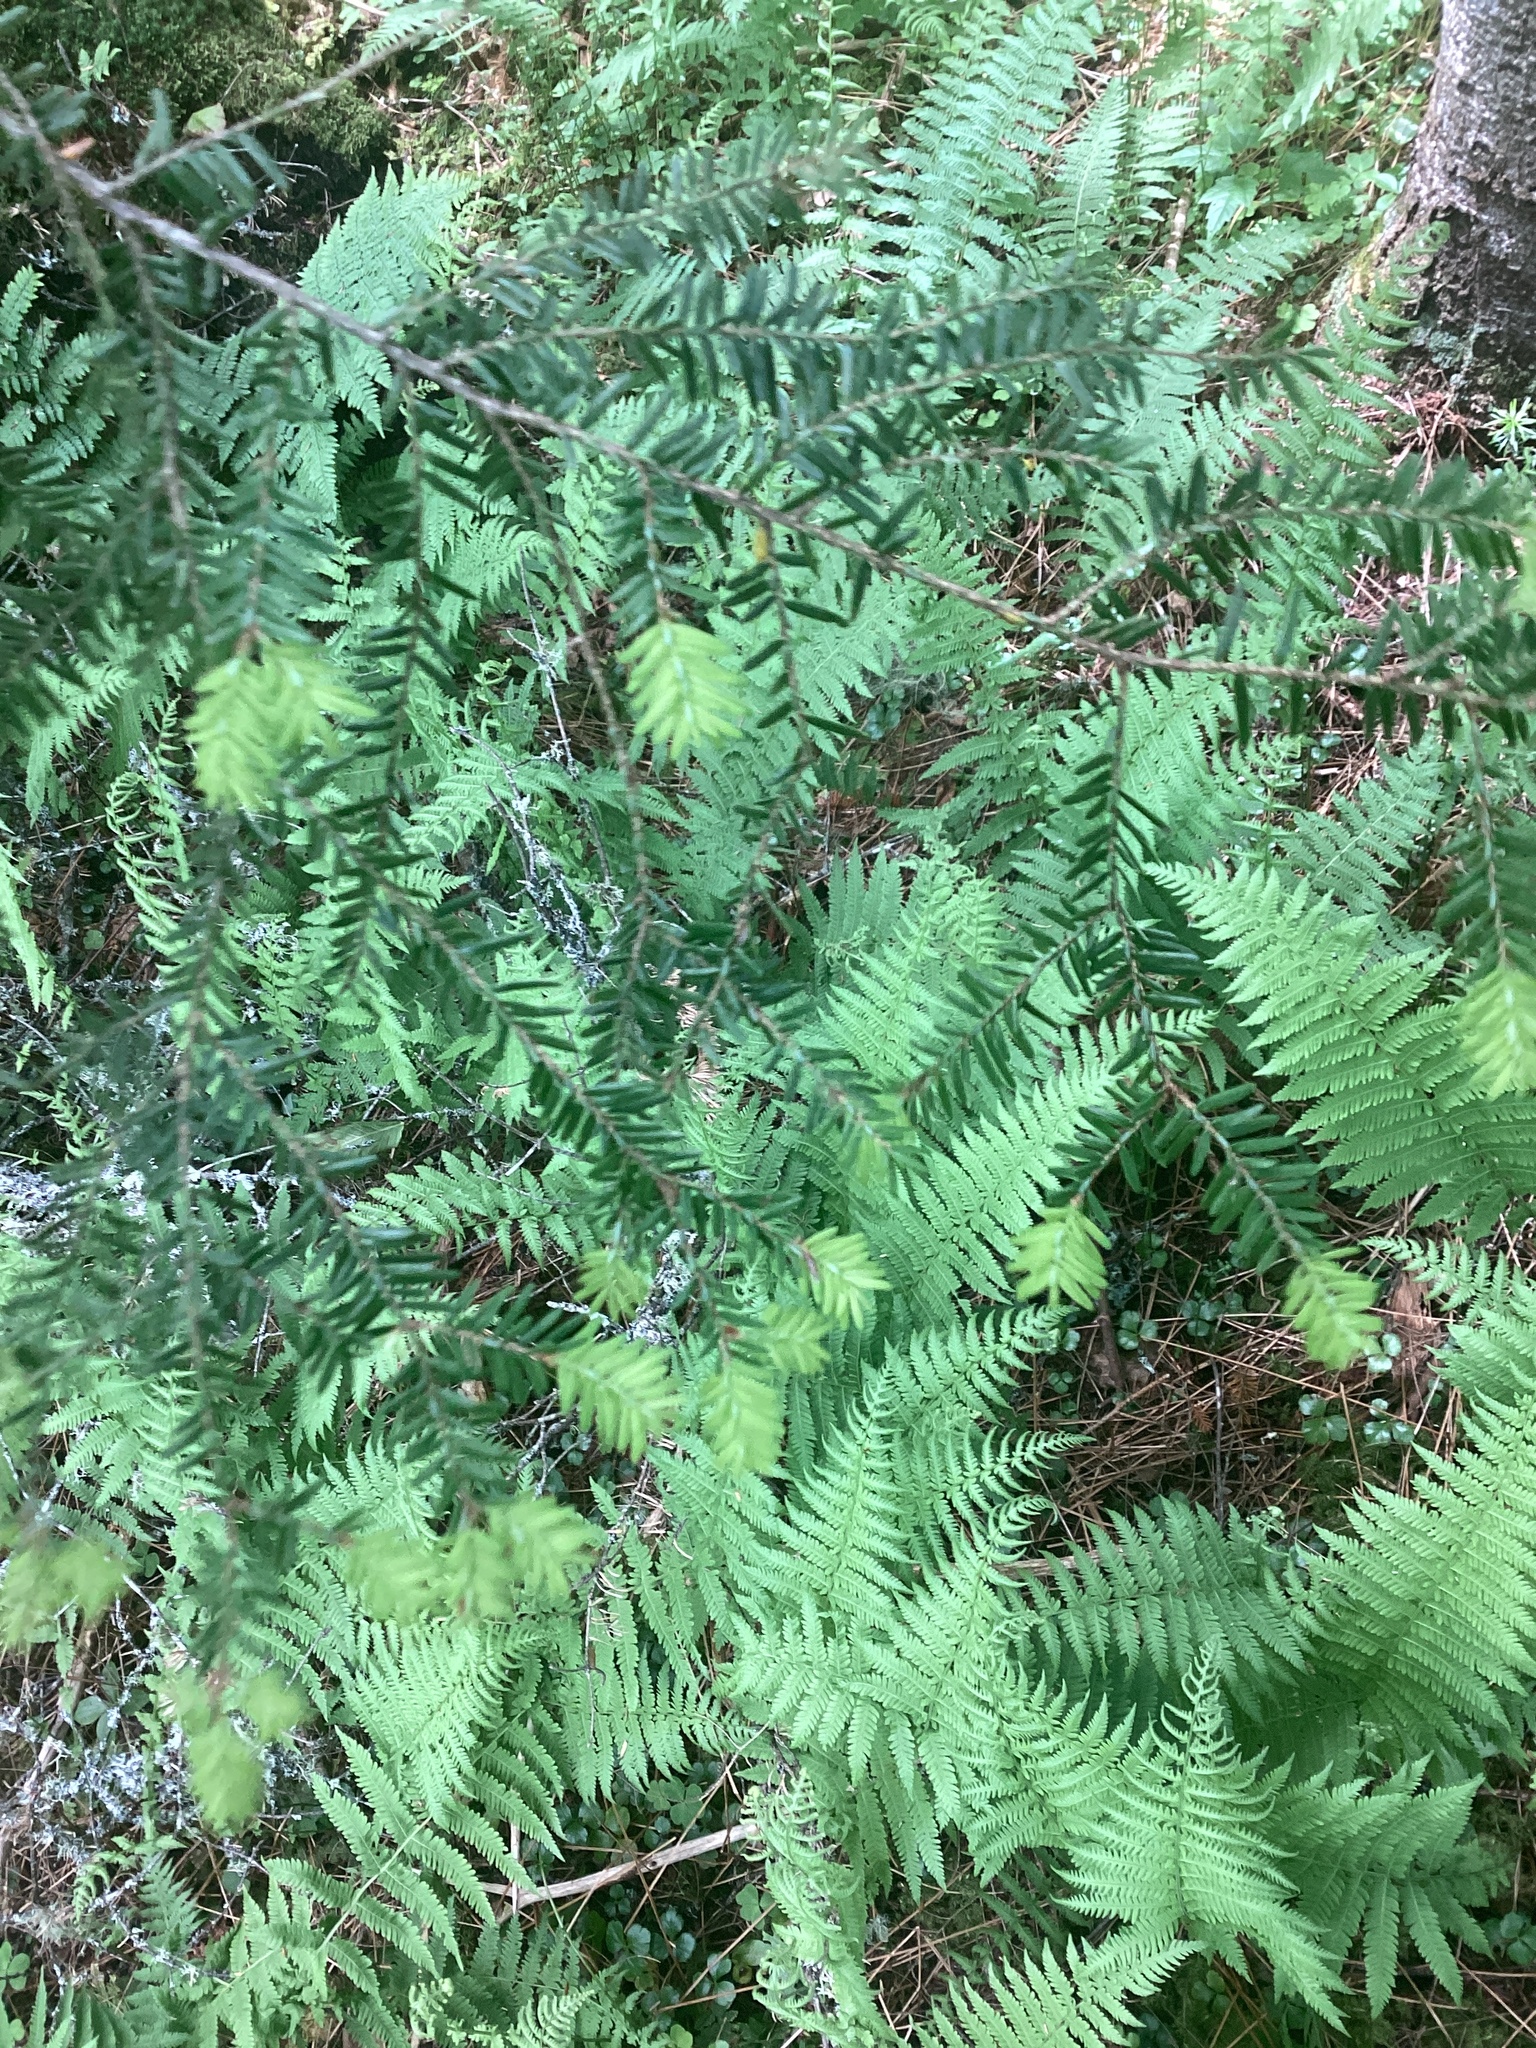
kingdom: Plantae
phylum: Tracheophyta
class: Pinopsida
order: Pinales
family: Pinaceae
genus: Tsuga
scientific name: Tsuga canadensis
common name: Eastern hemlock
